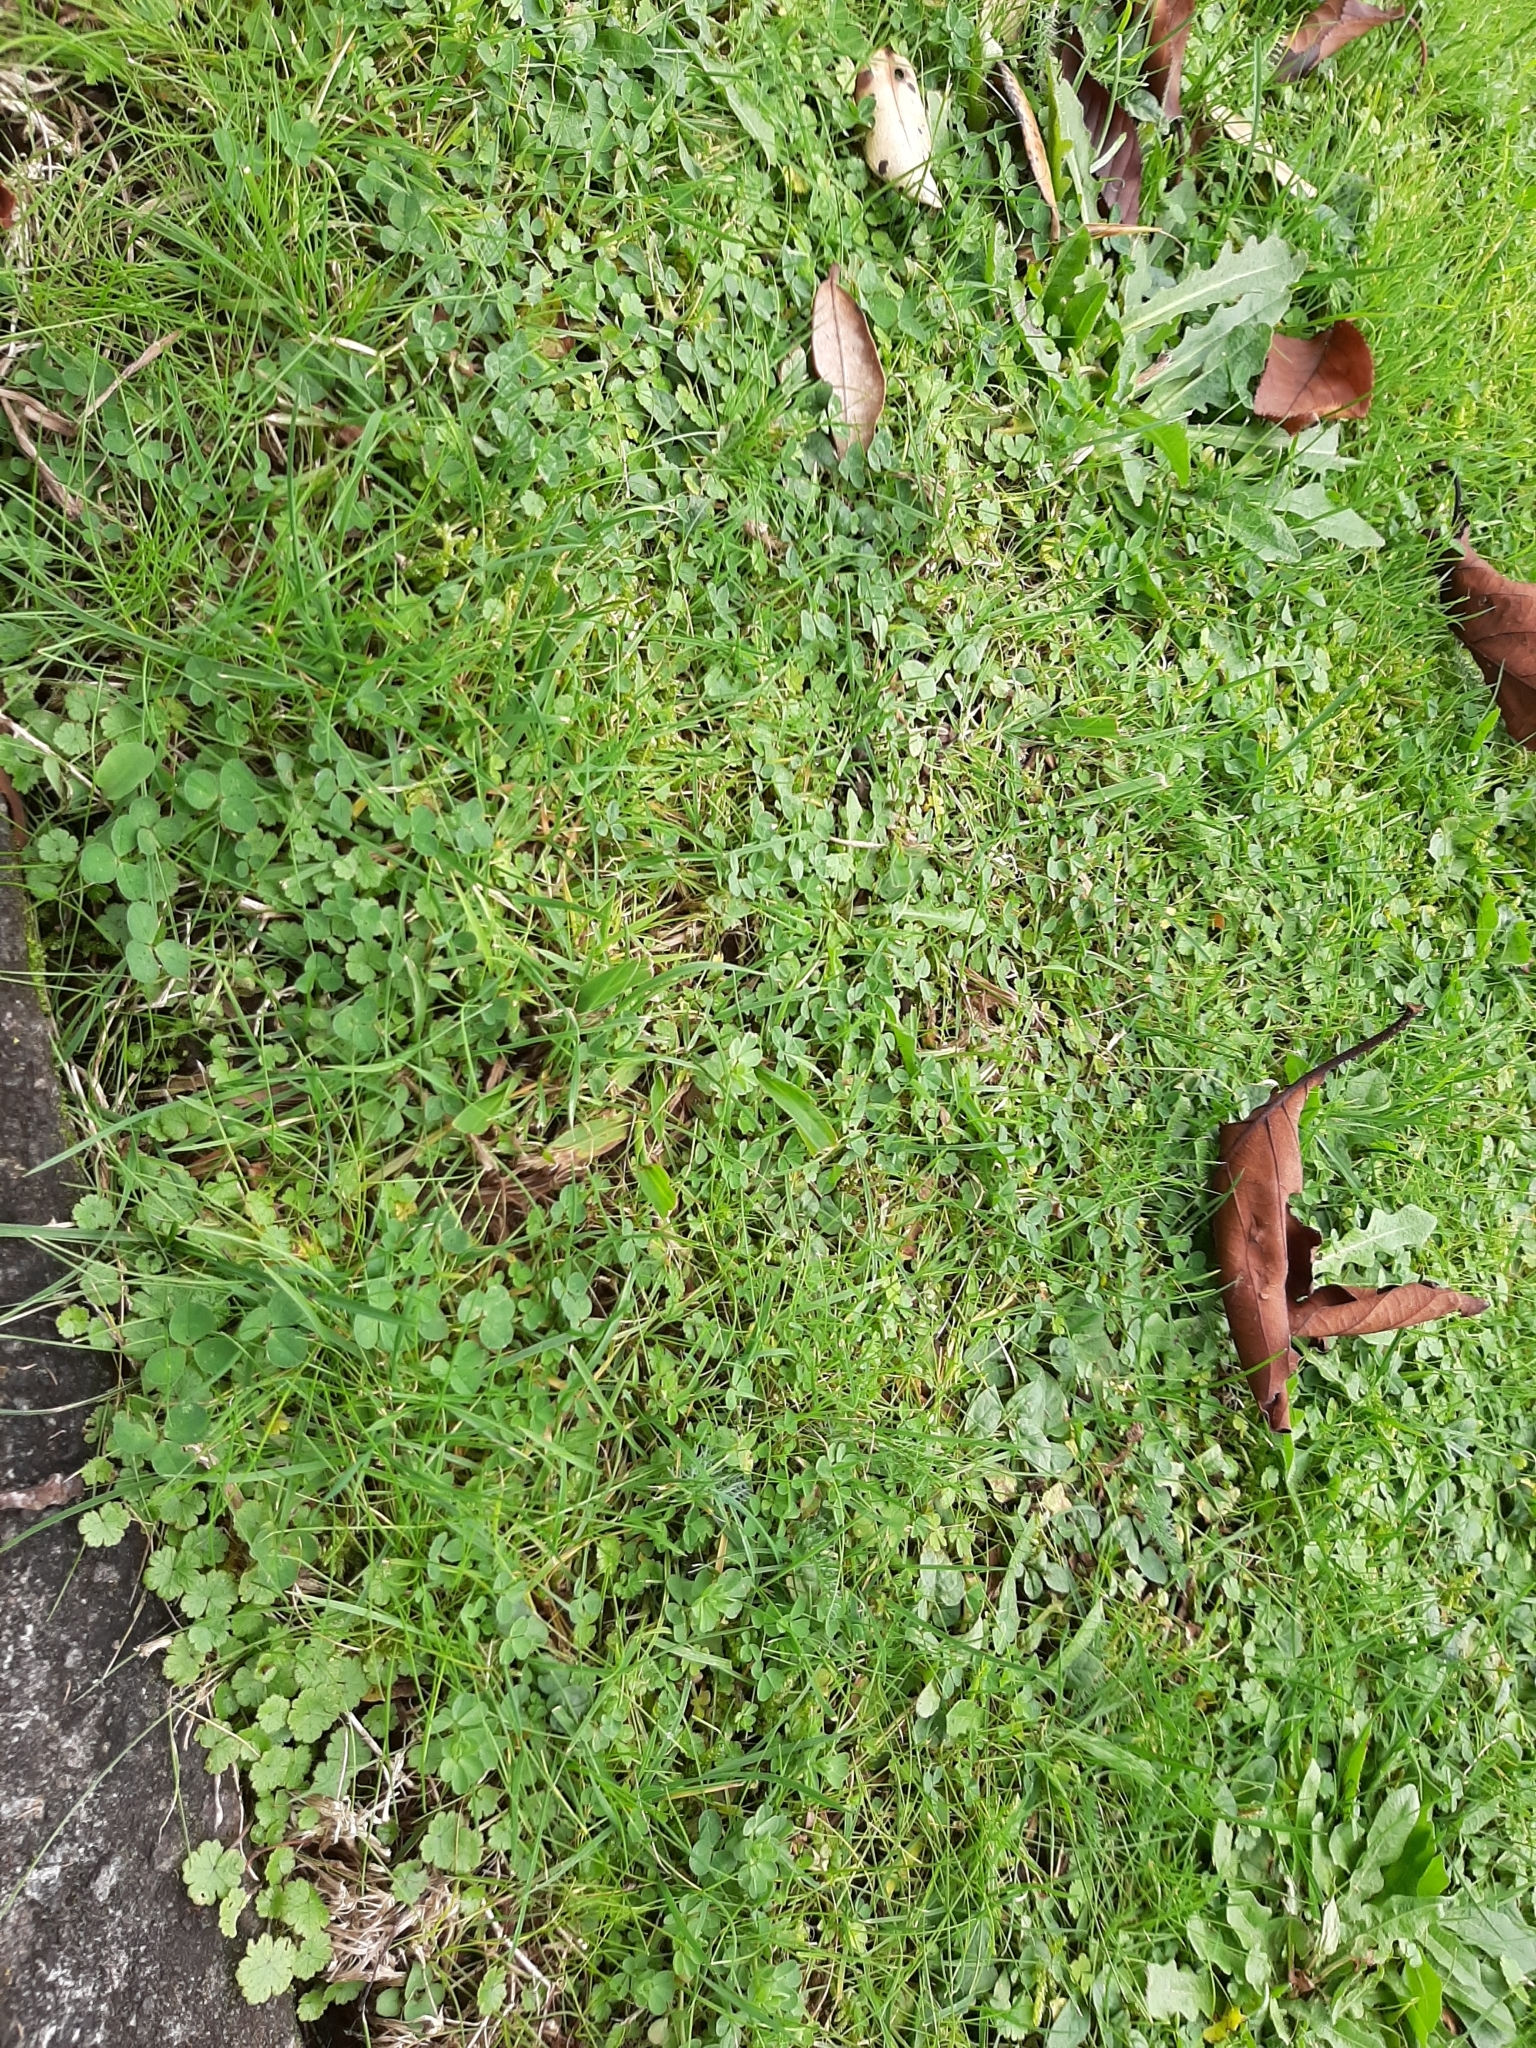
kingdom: Plantae
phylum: Tracheophyta
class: Magnoliopsida
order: Apiales
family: Araliaceae
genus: Hydrocotyle
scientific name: Hydrocotyle microphylla
